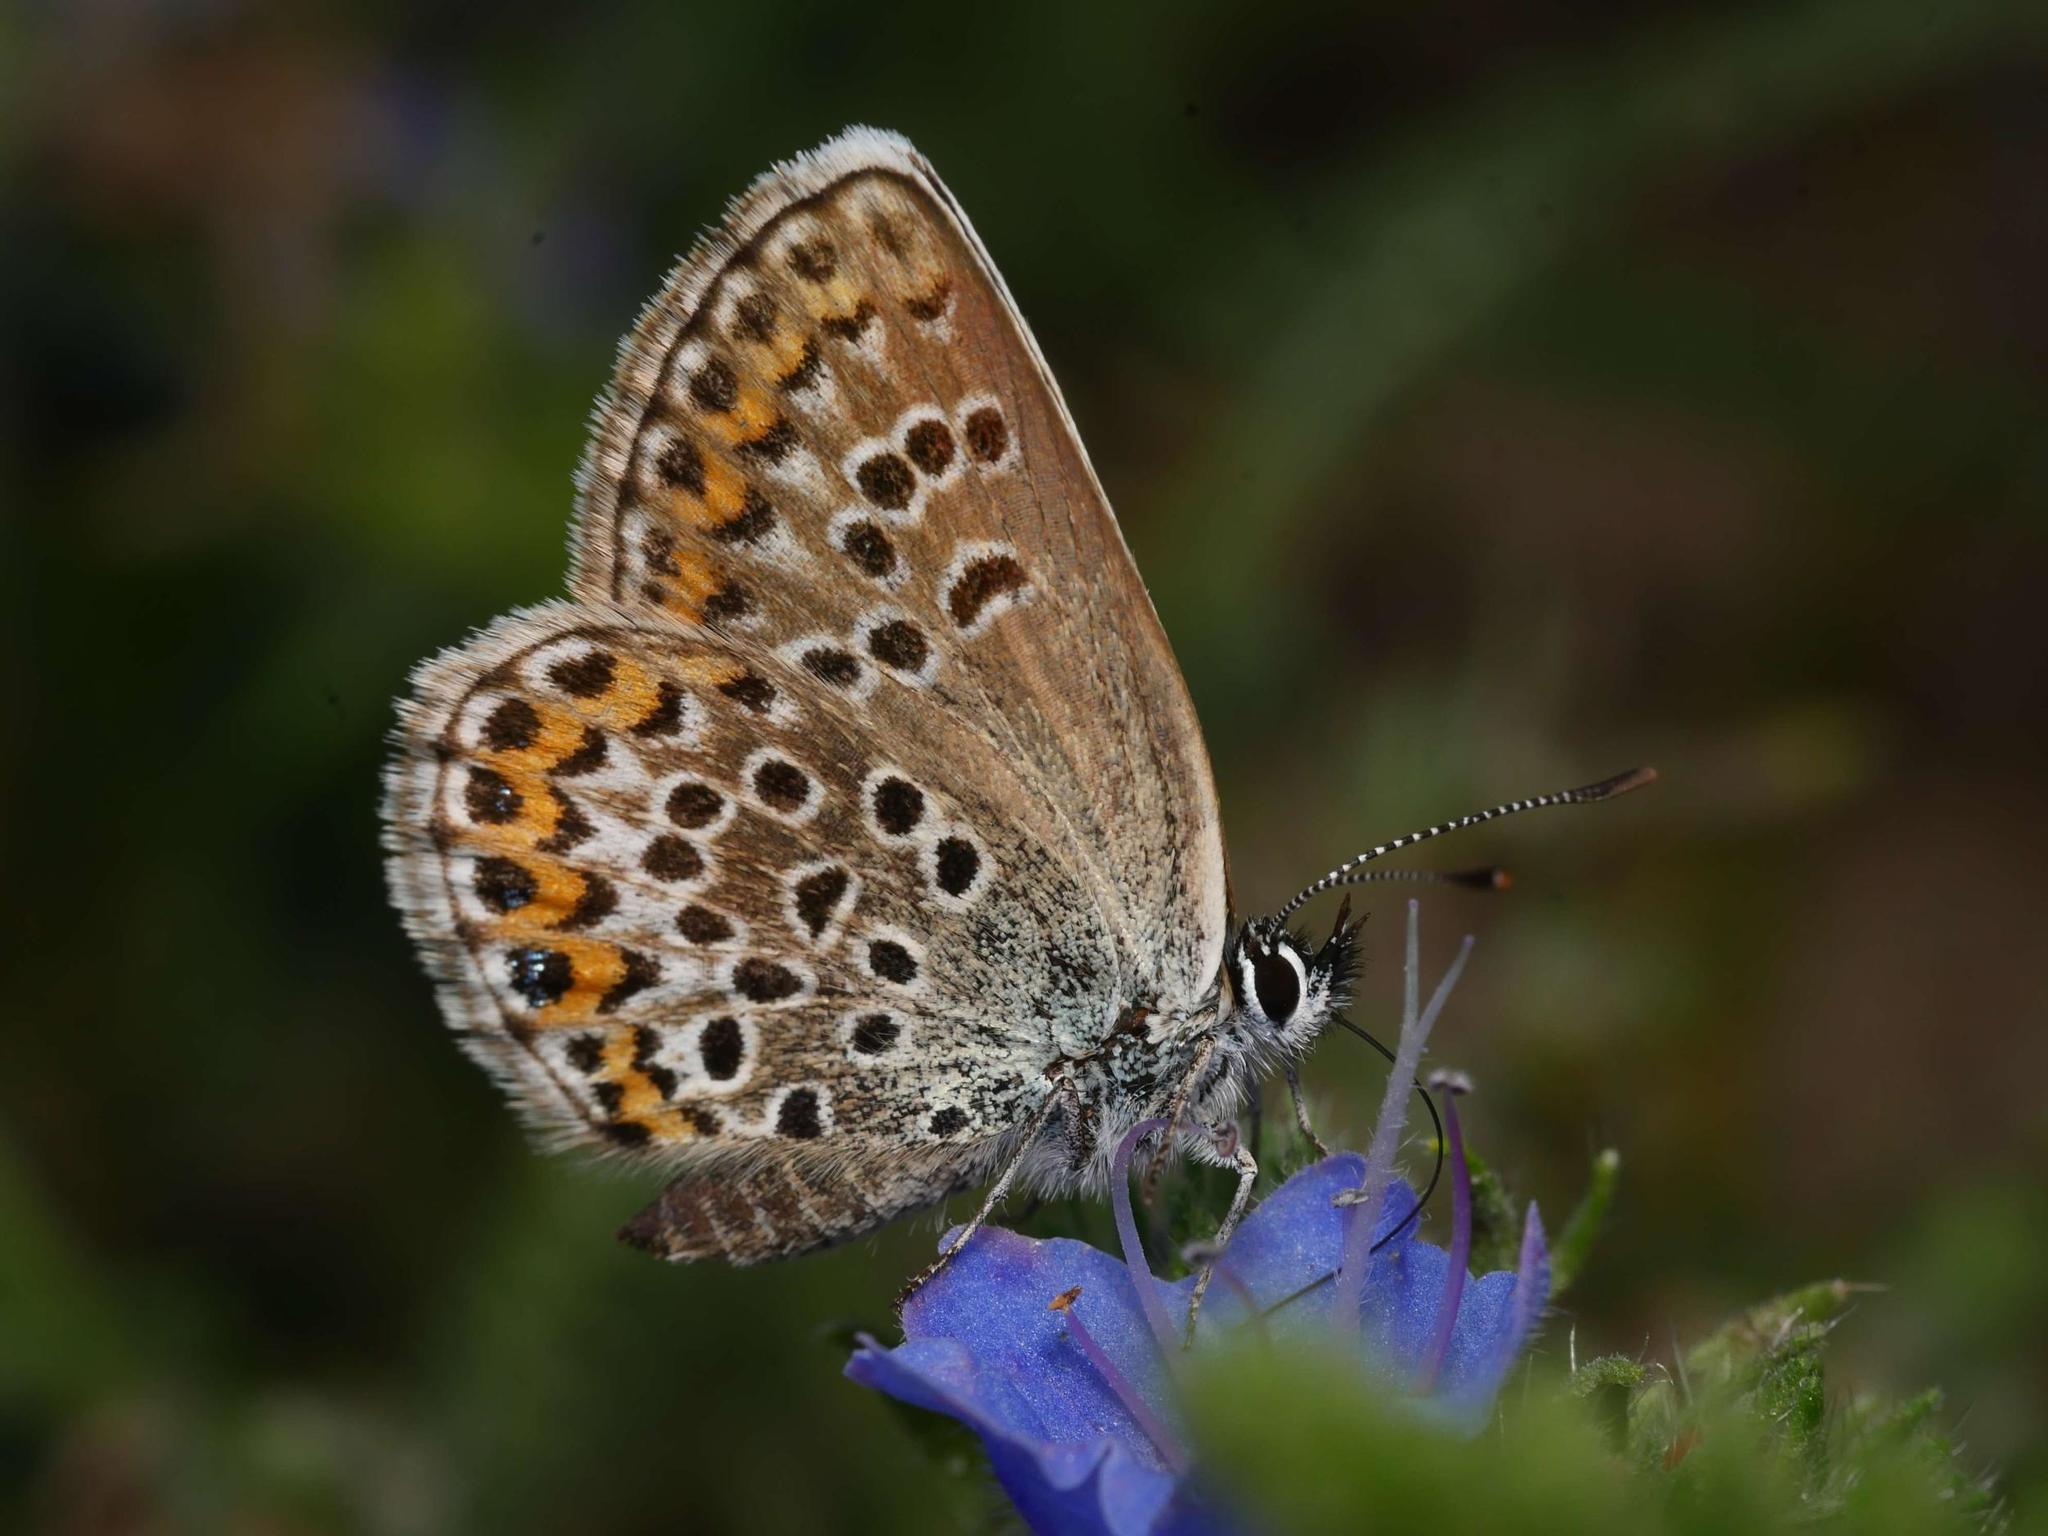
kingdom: Animalia
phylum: Arthropoda
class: Insecta
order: Lepidoptera
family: Lycaenidae
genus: Plebejus
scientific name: Plebejus argus
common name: Silver-studded blue
